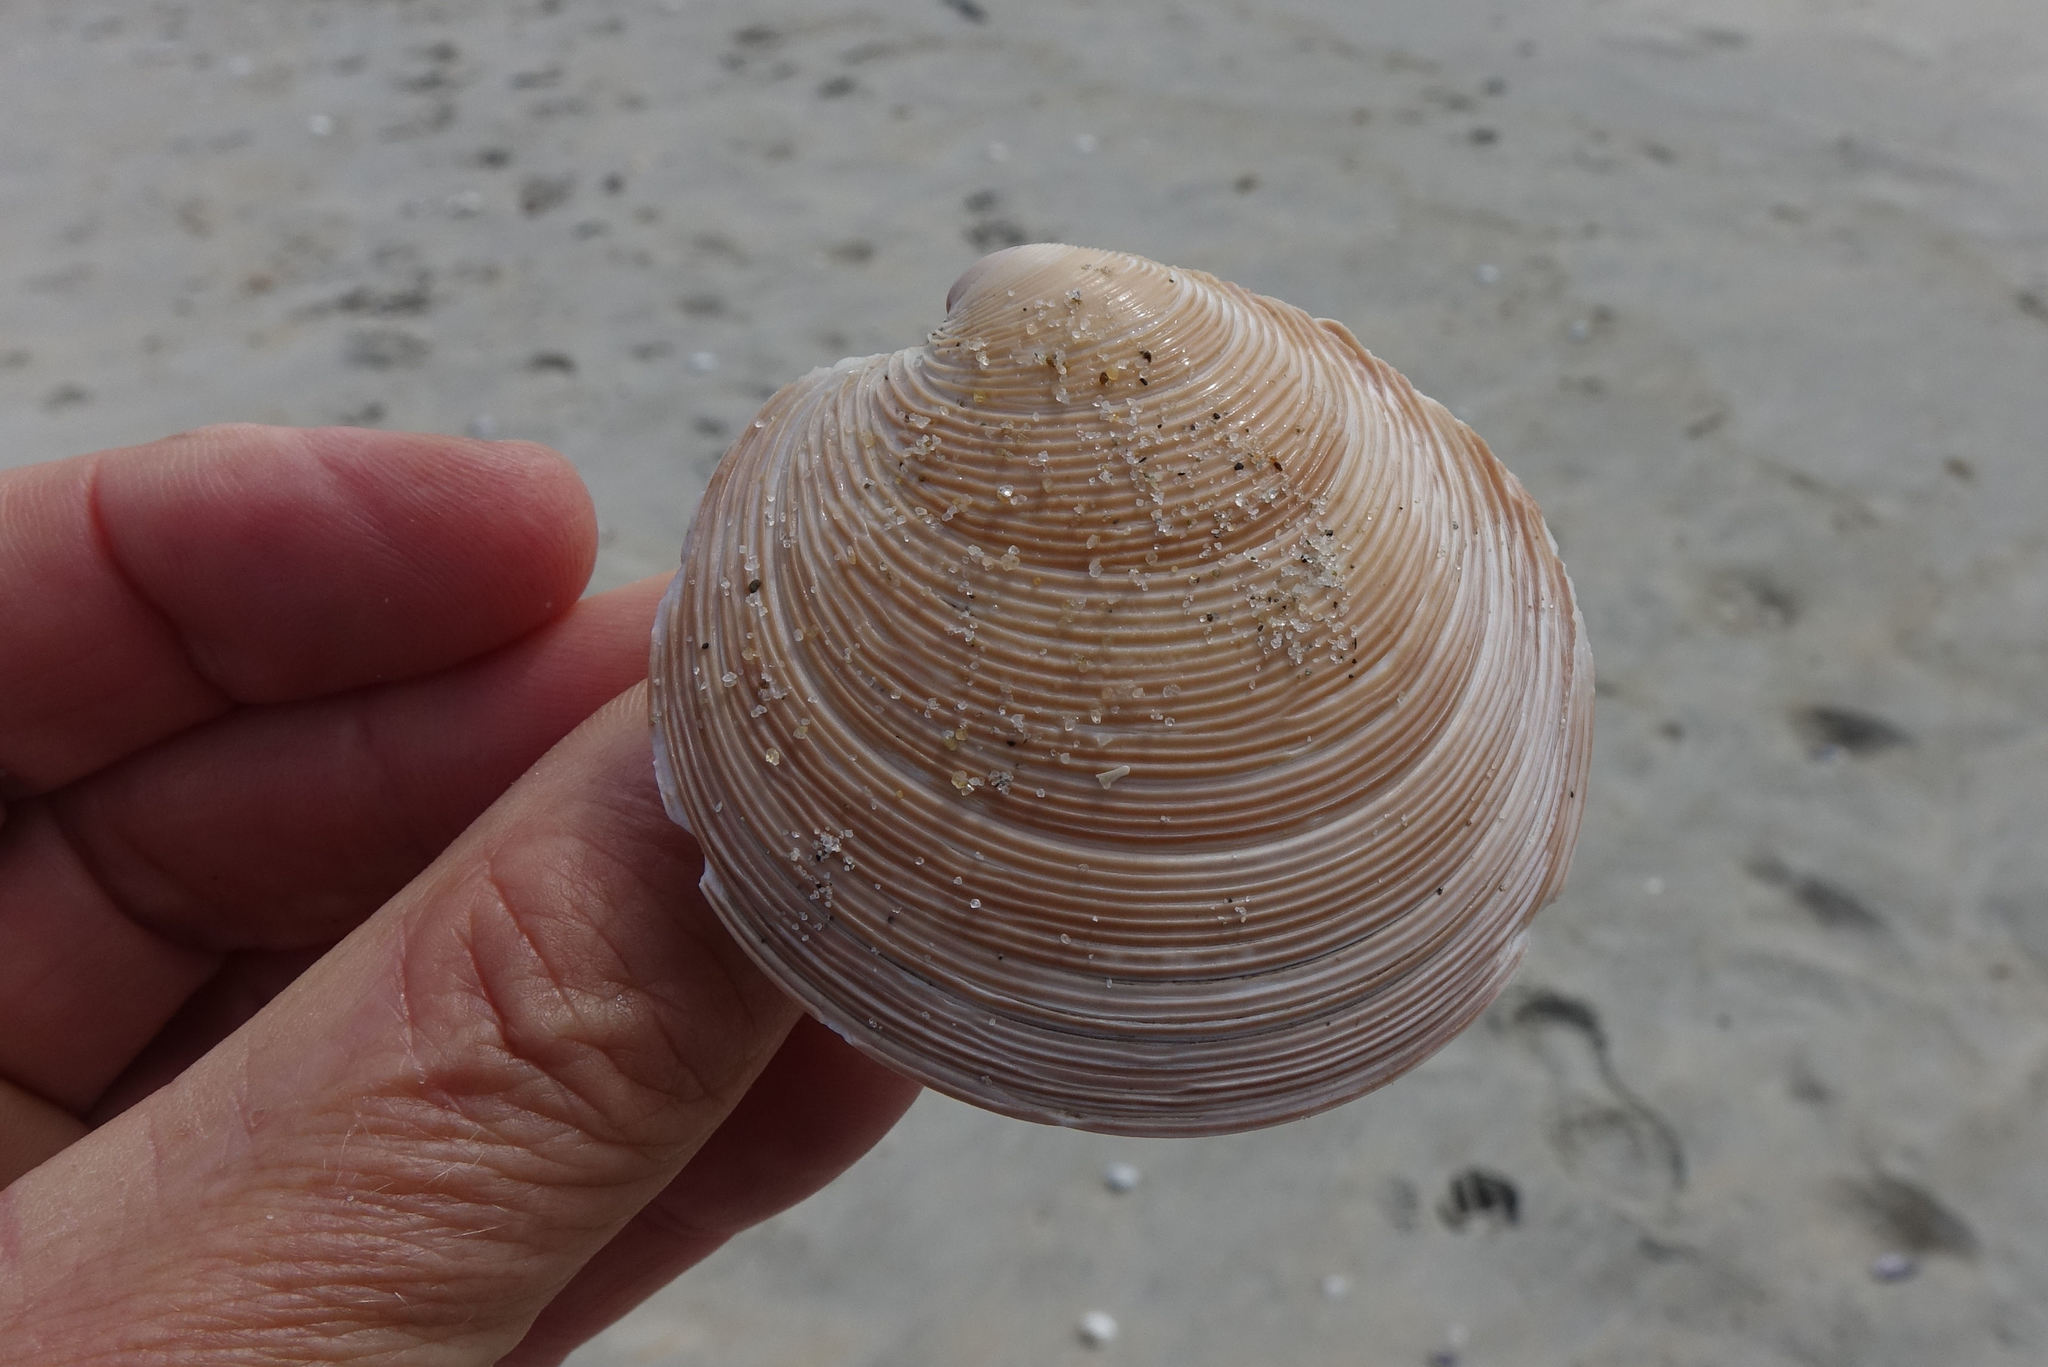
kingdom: Animalia
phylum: Mollusca
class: Bivalvia
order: Venerida
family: Veneridae
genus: Dosinia
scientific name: Dosinia anus
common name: Old-woman dosinia
